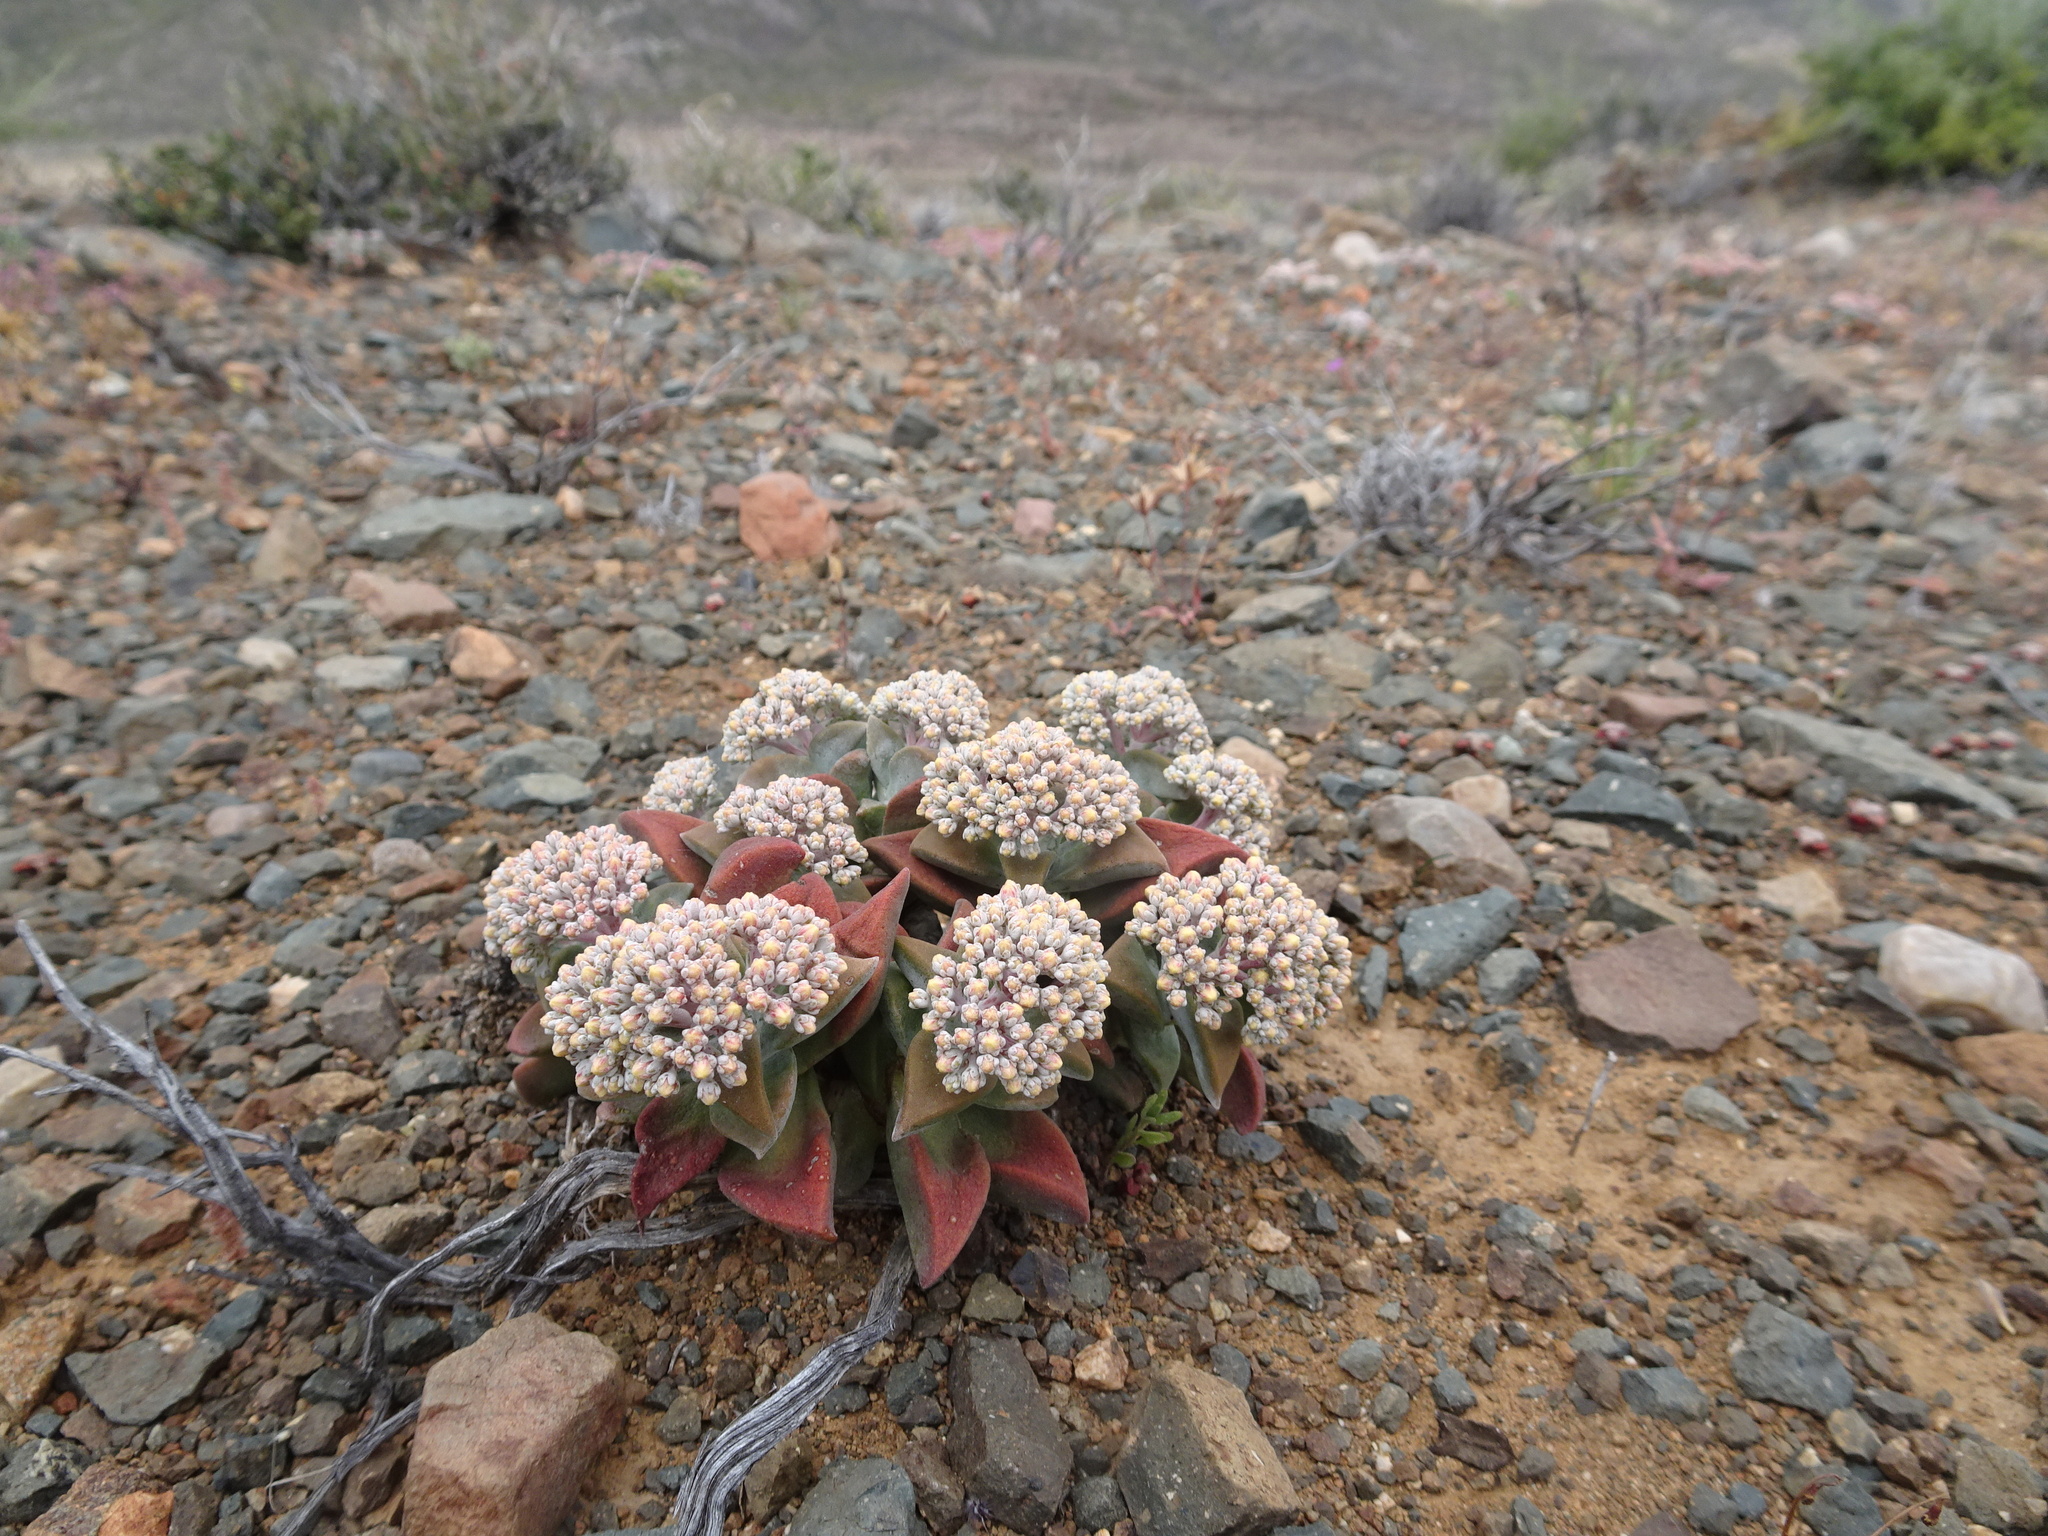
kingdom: Plantae
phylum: Tracheophyta
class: Magnoliopsida
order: Saxifragales
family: Crassulaceae
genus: Crassula
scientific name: Crassula deltoidea
